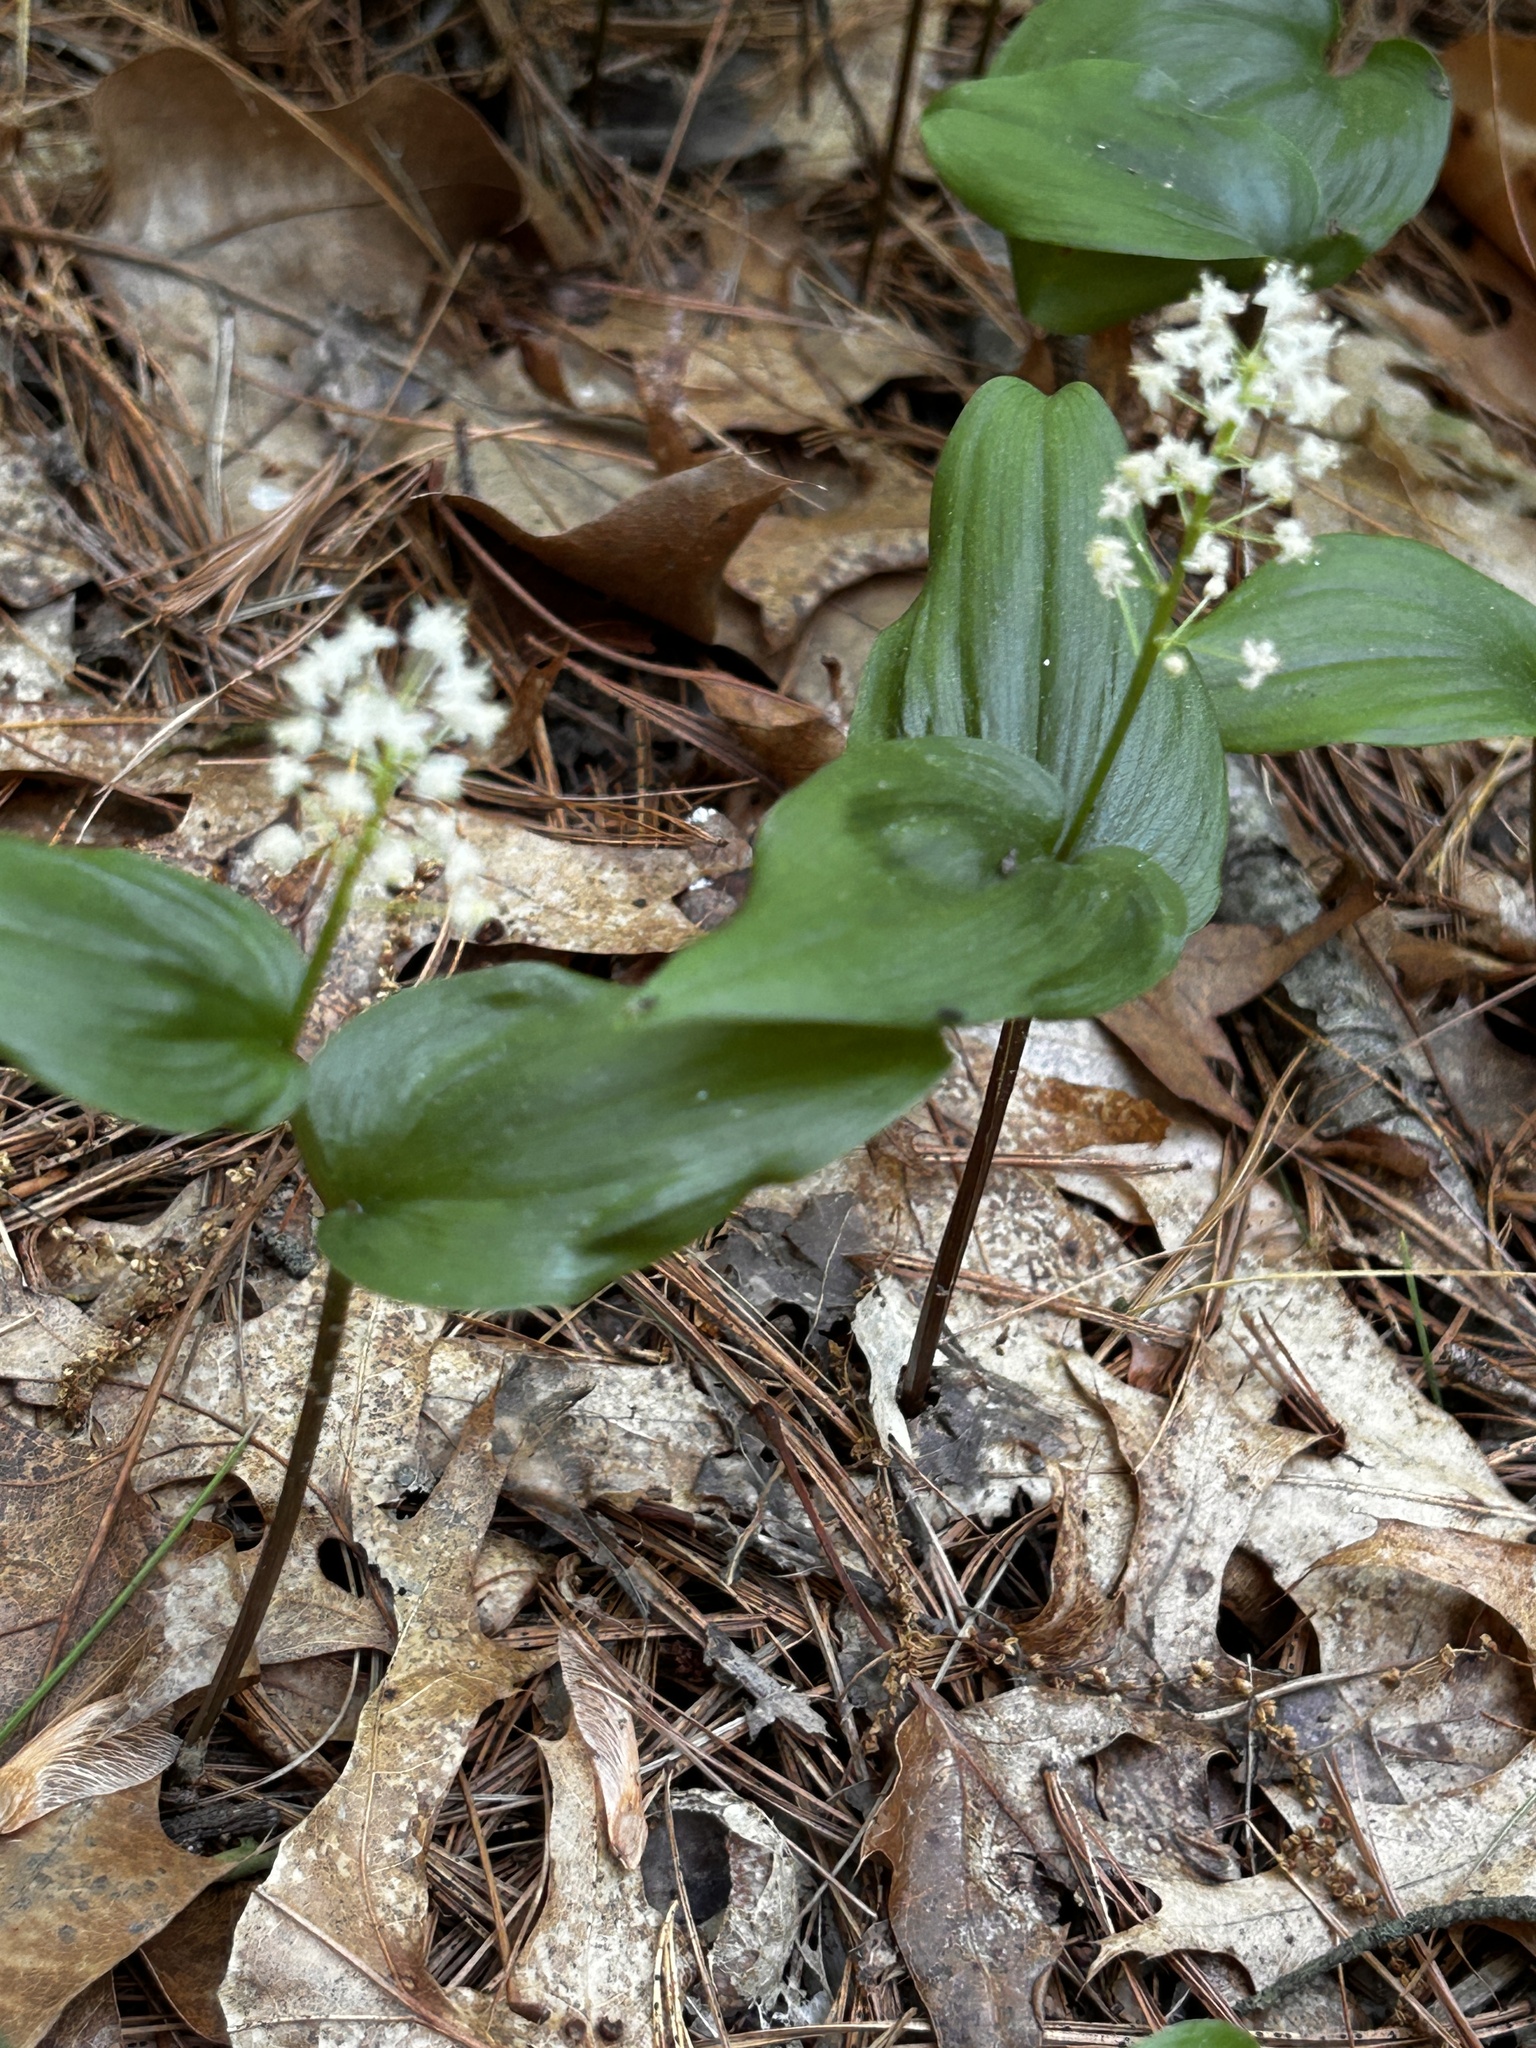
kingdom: Plantae
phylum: Tracheophyta
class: Liliopsida
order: Asparagales
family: Asparagaceae
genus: Maianthemum
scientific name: Maianthemum canadense
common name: False lily-of-the-valley
